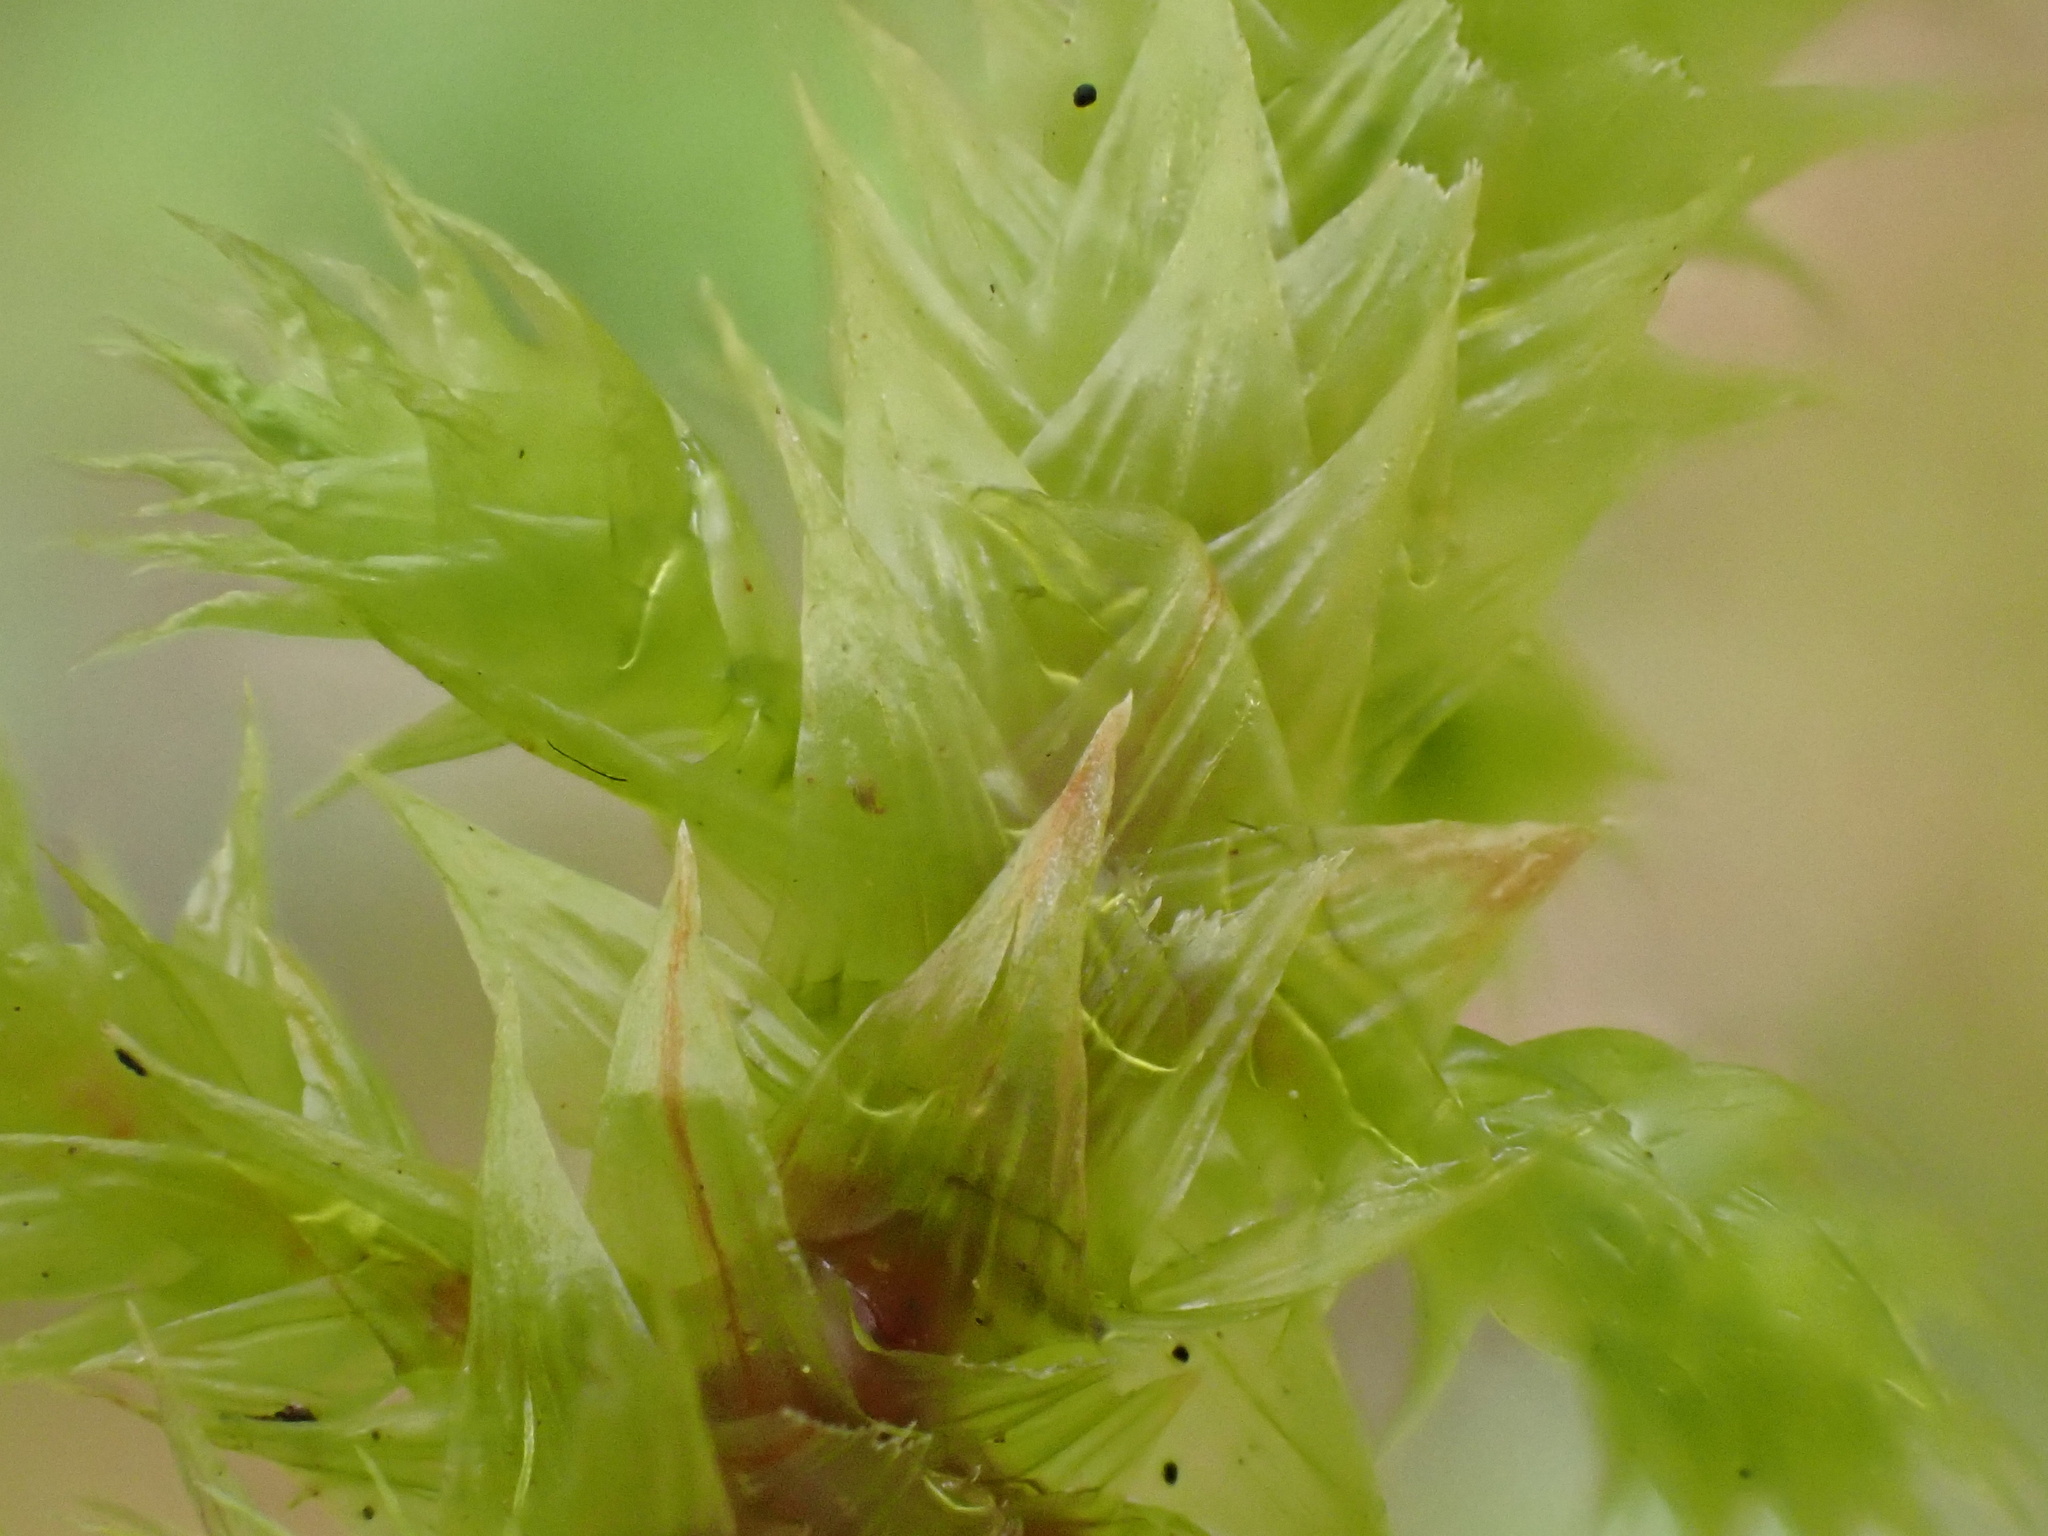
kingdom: Plantae
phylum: Bryophyta
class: Bryopsida
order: Hypnales
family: Hylocomiaceae
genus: Hylocomiadelphus
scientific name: Hylocomiadelphus triquetrus
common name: Rough goose neck moss
